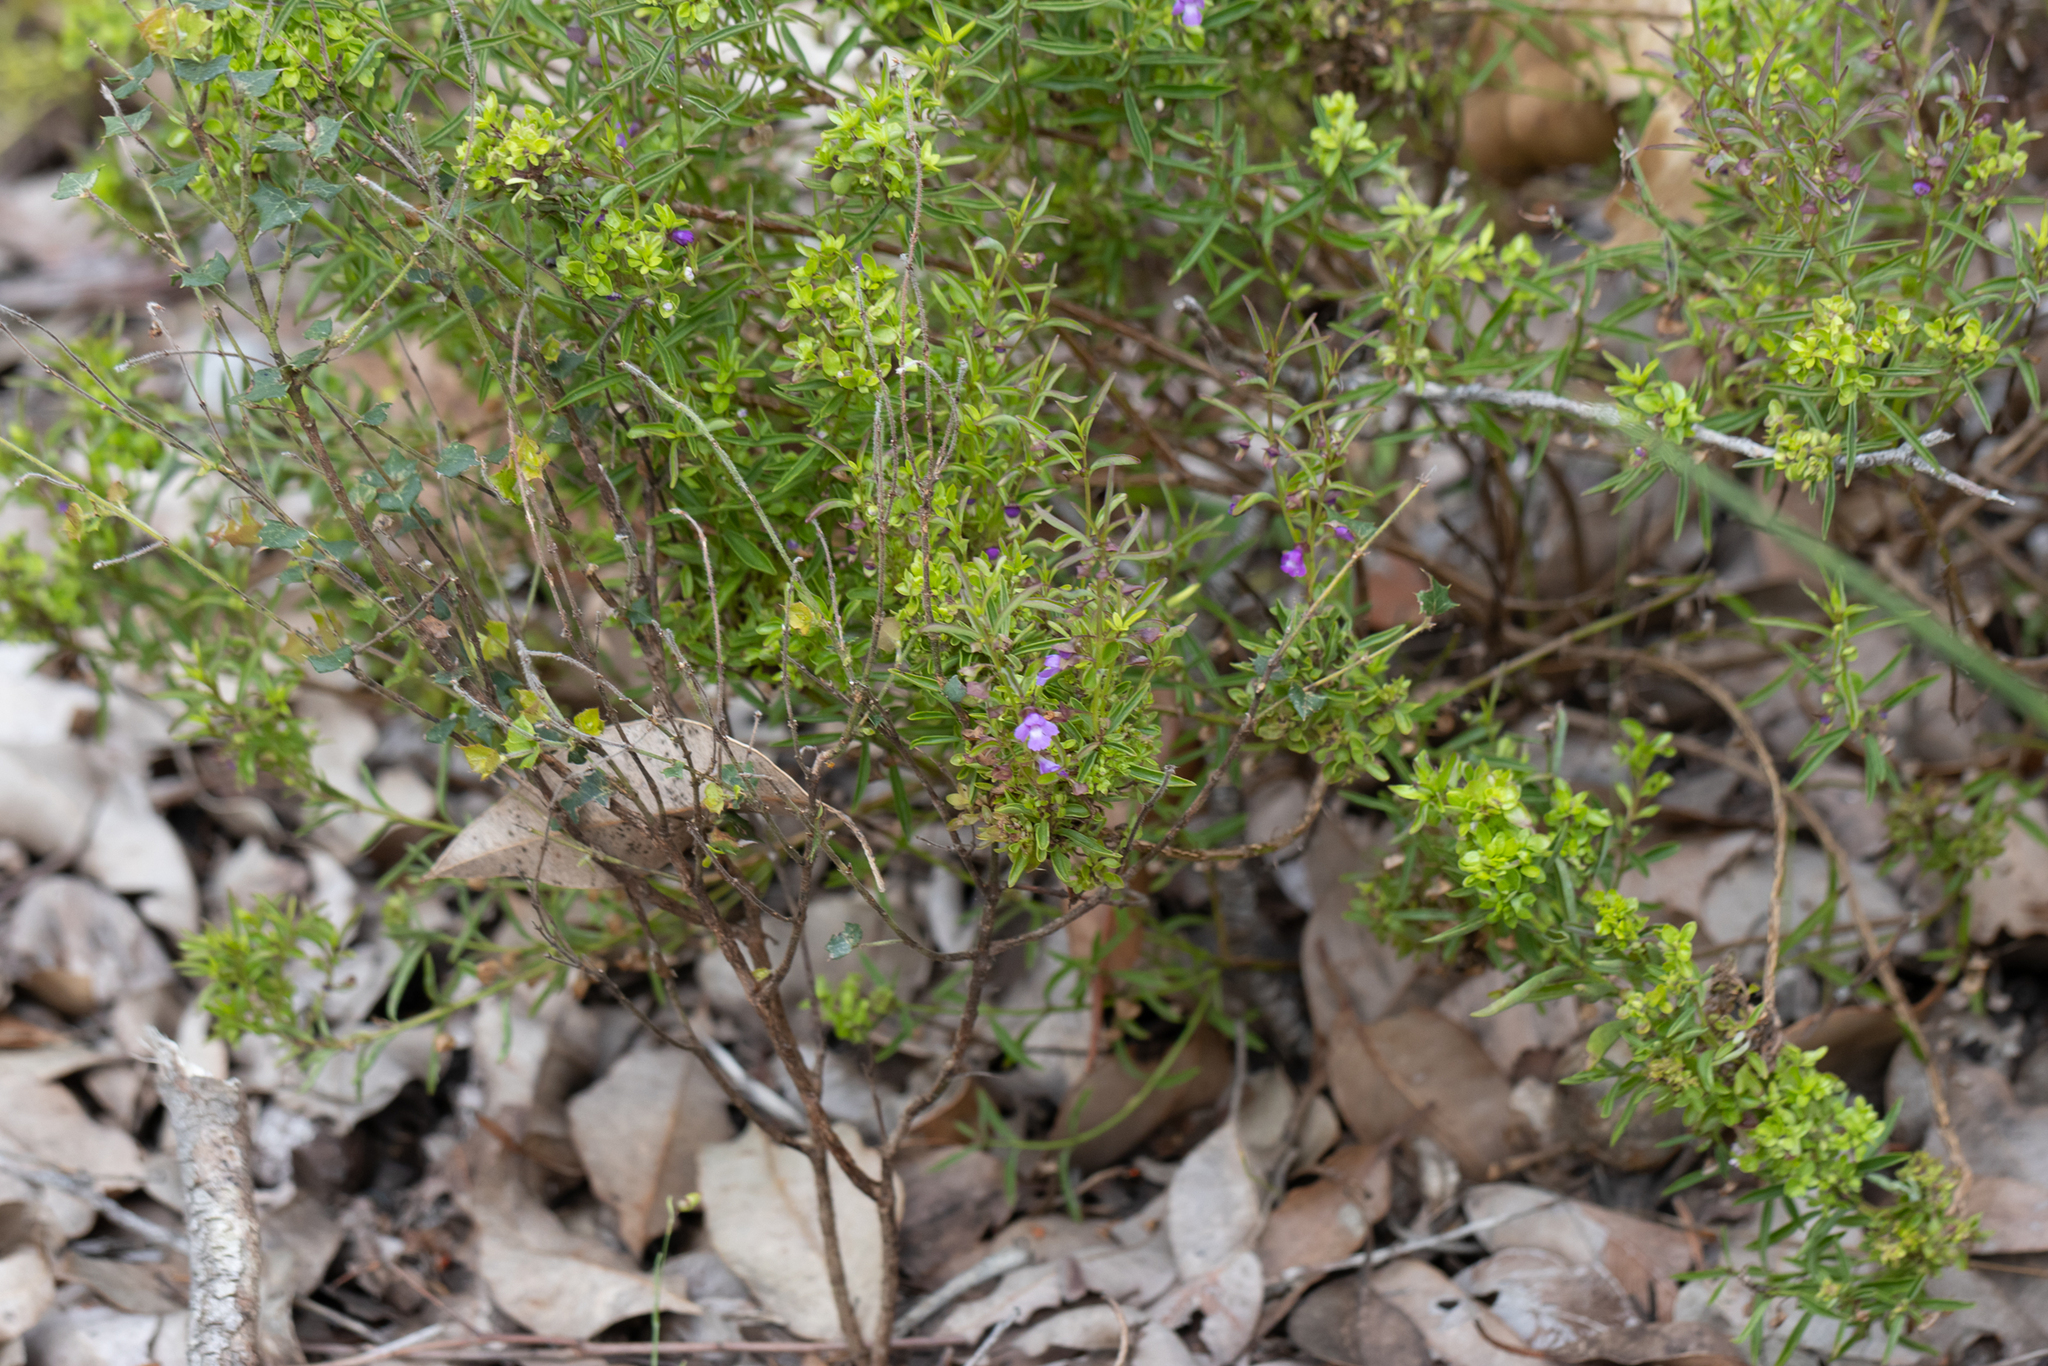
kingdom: Plantae
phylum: Tracheophyta
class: Magnoliopsida
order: Lamiales
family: Lamiaceae
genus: Hemigenia
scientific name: Hemigenia pritzelii
